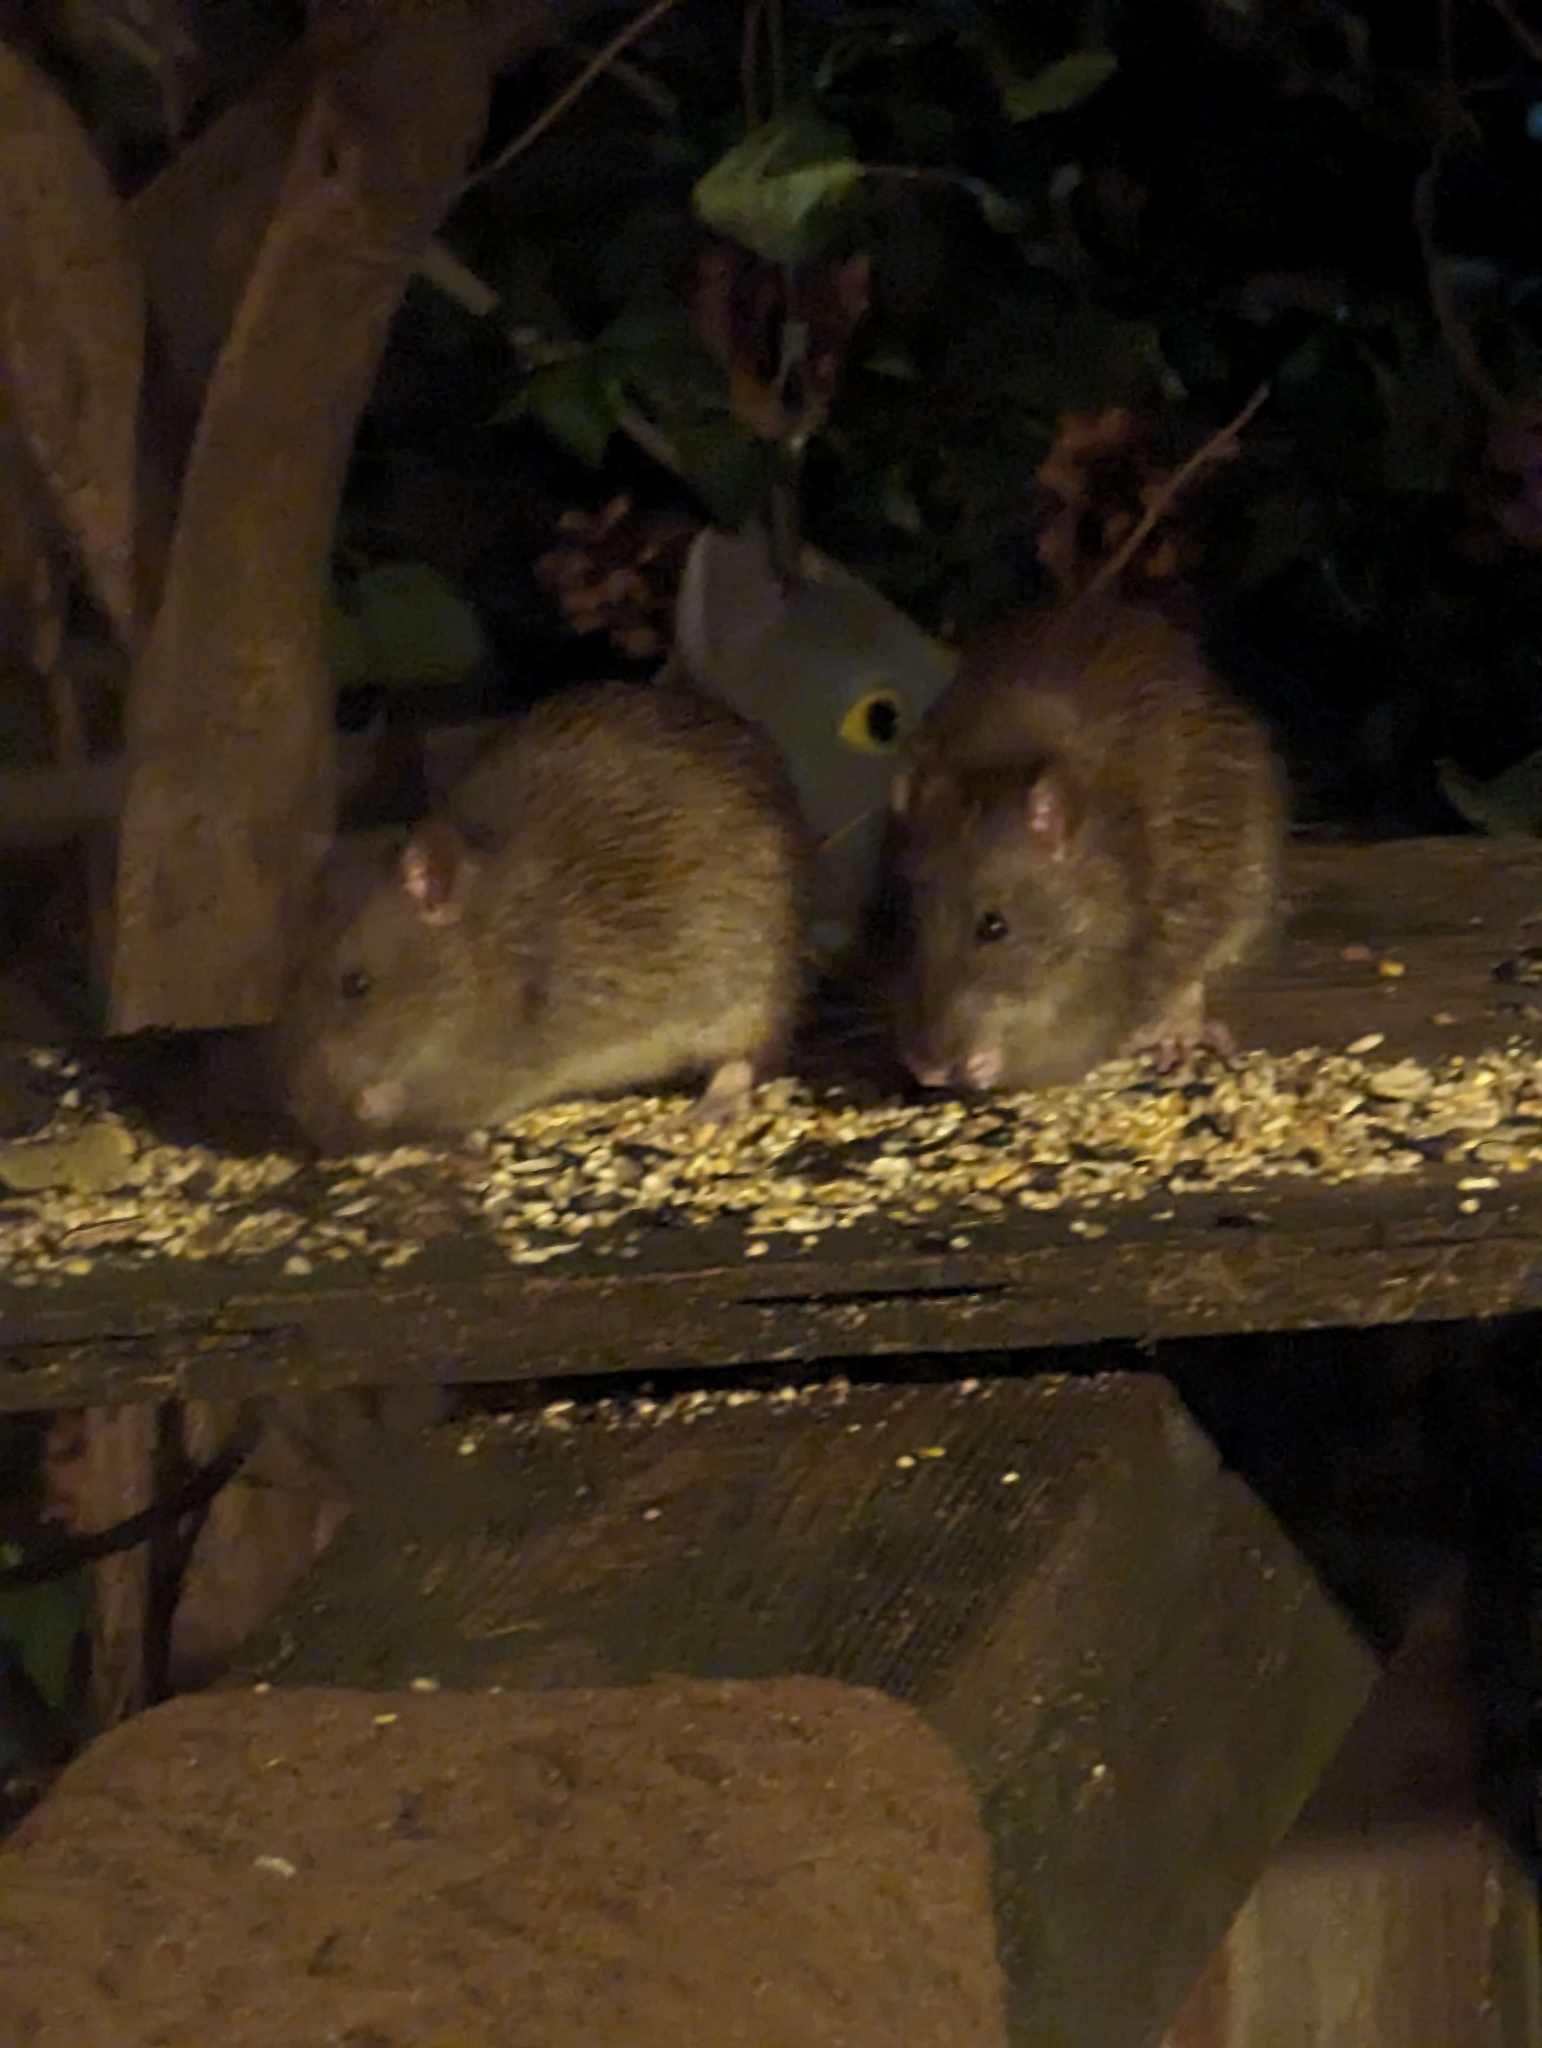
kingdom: Animalia
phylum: Chordata
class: Mammalia
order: Rodentia
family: Muridae
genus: Rattus
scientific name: Rattus norvegicus
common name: Brown rat
